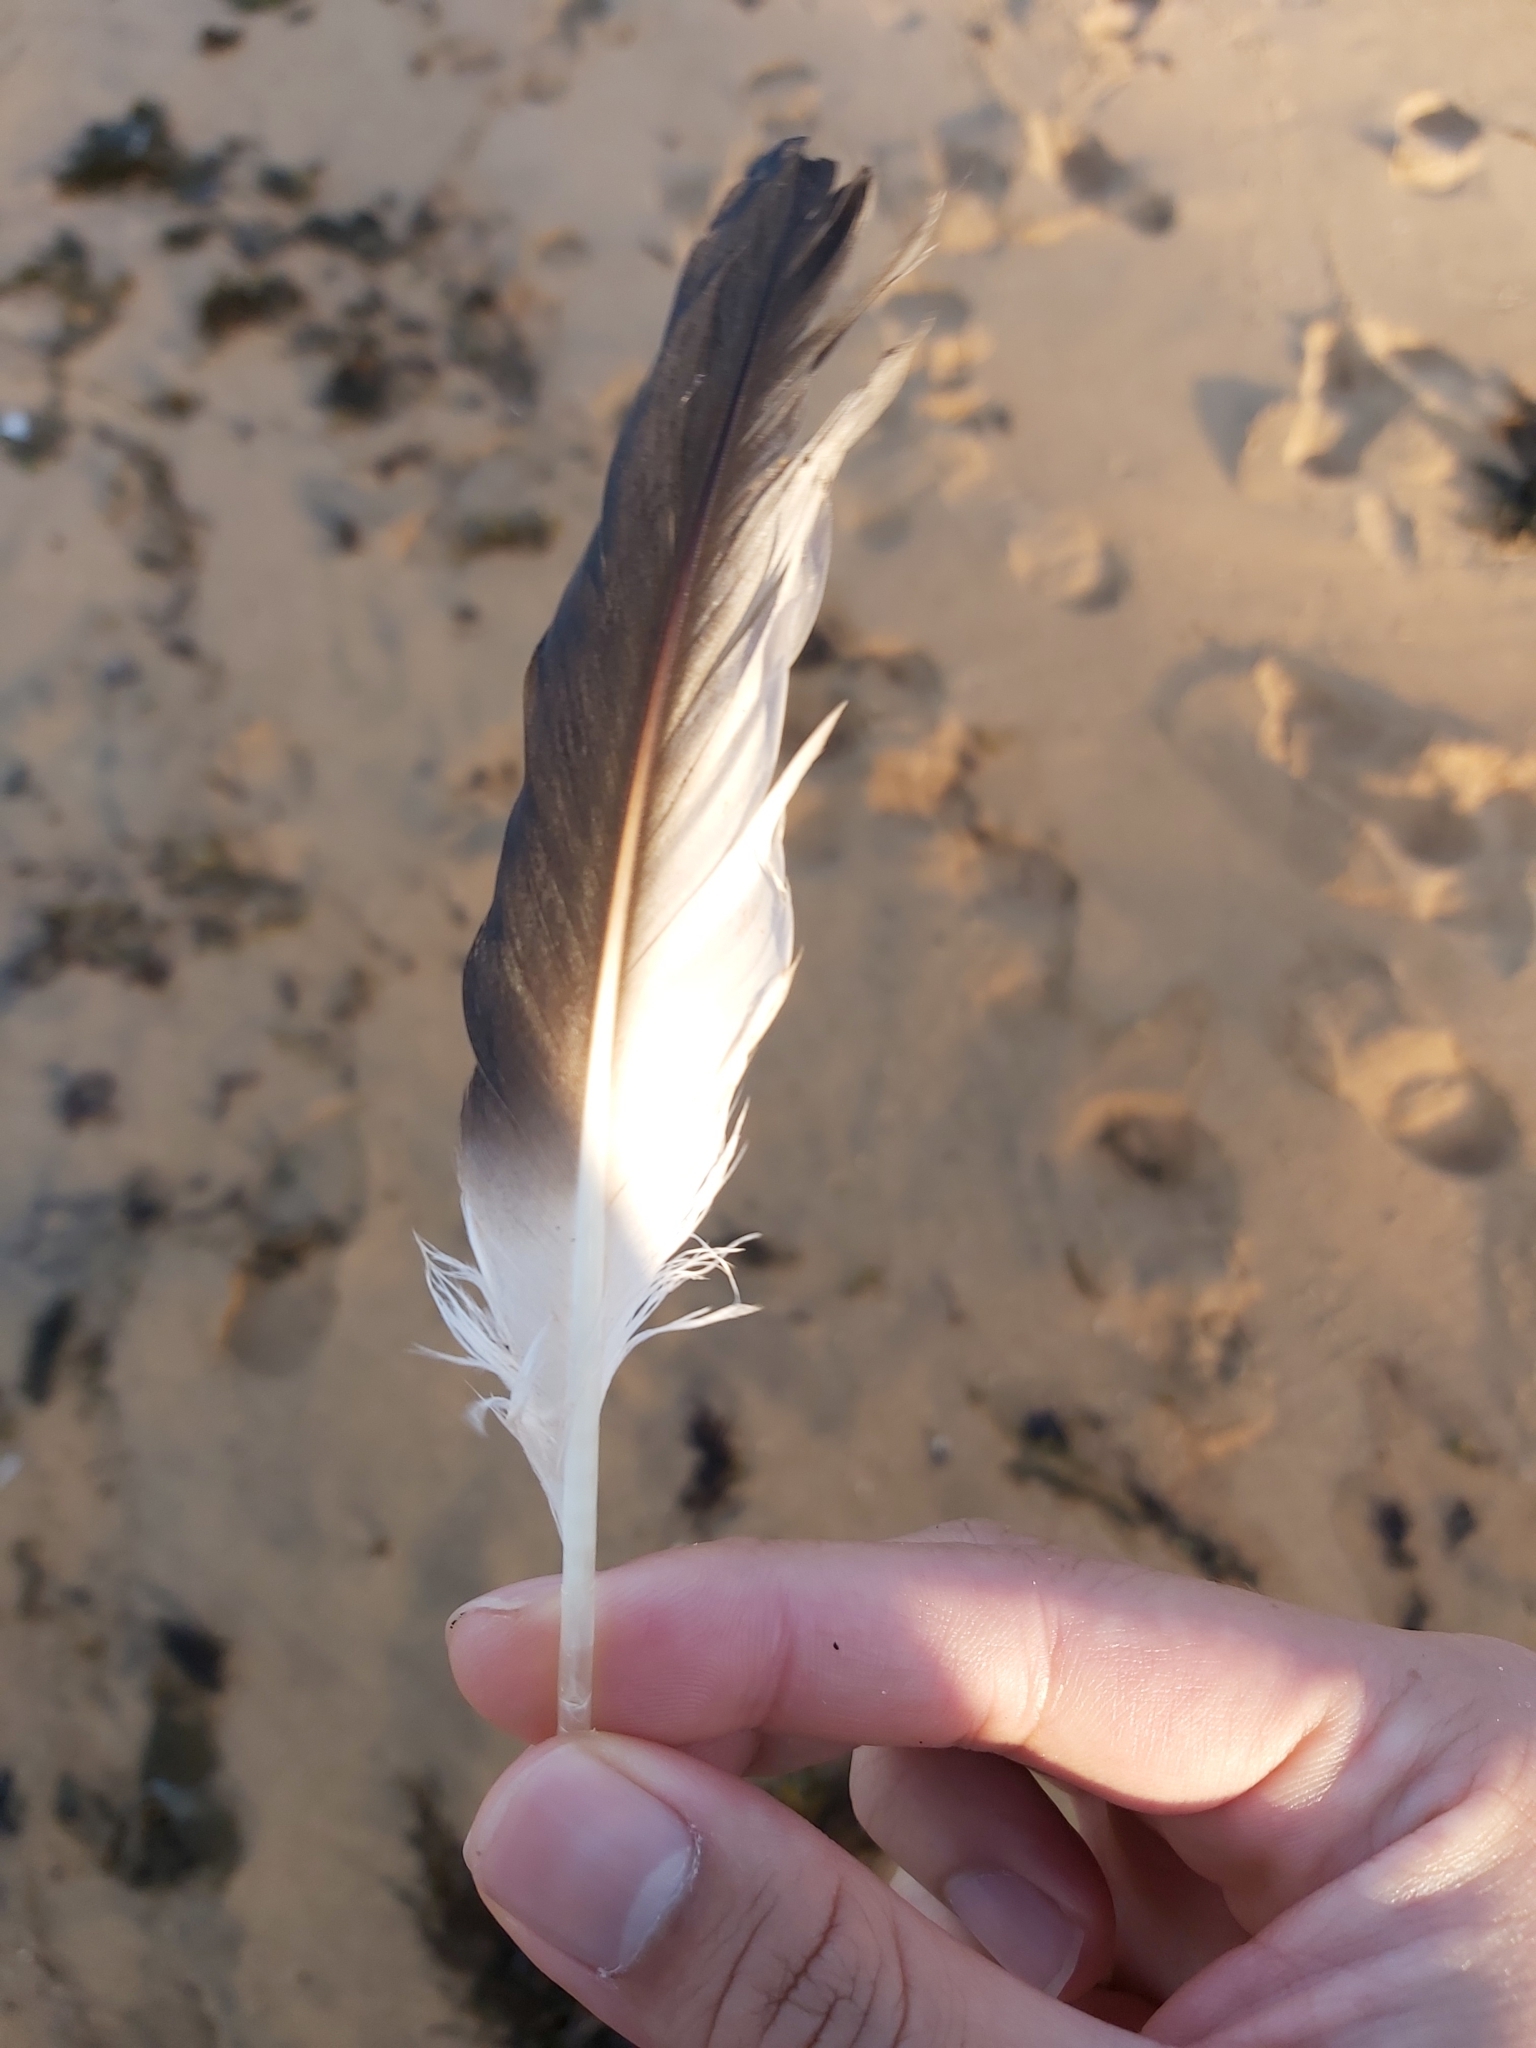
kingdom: Animalia
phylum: Chordata
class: Aves
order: Suliformes
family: Sulidae
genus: Morus
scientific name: Morus serrator
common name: Australasian gannet
